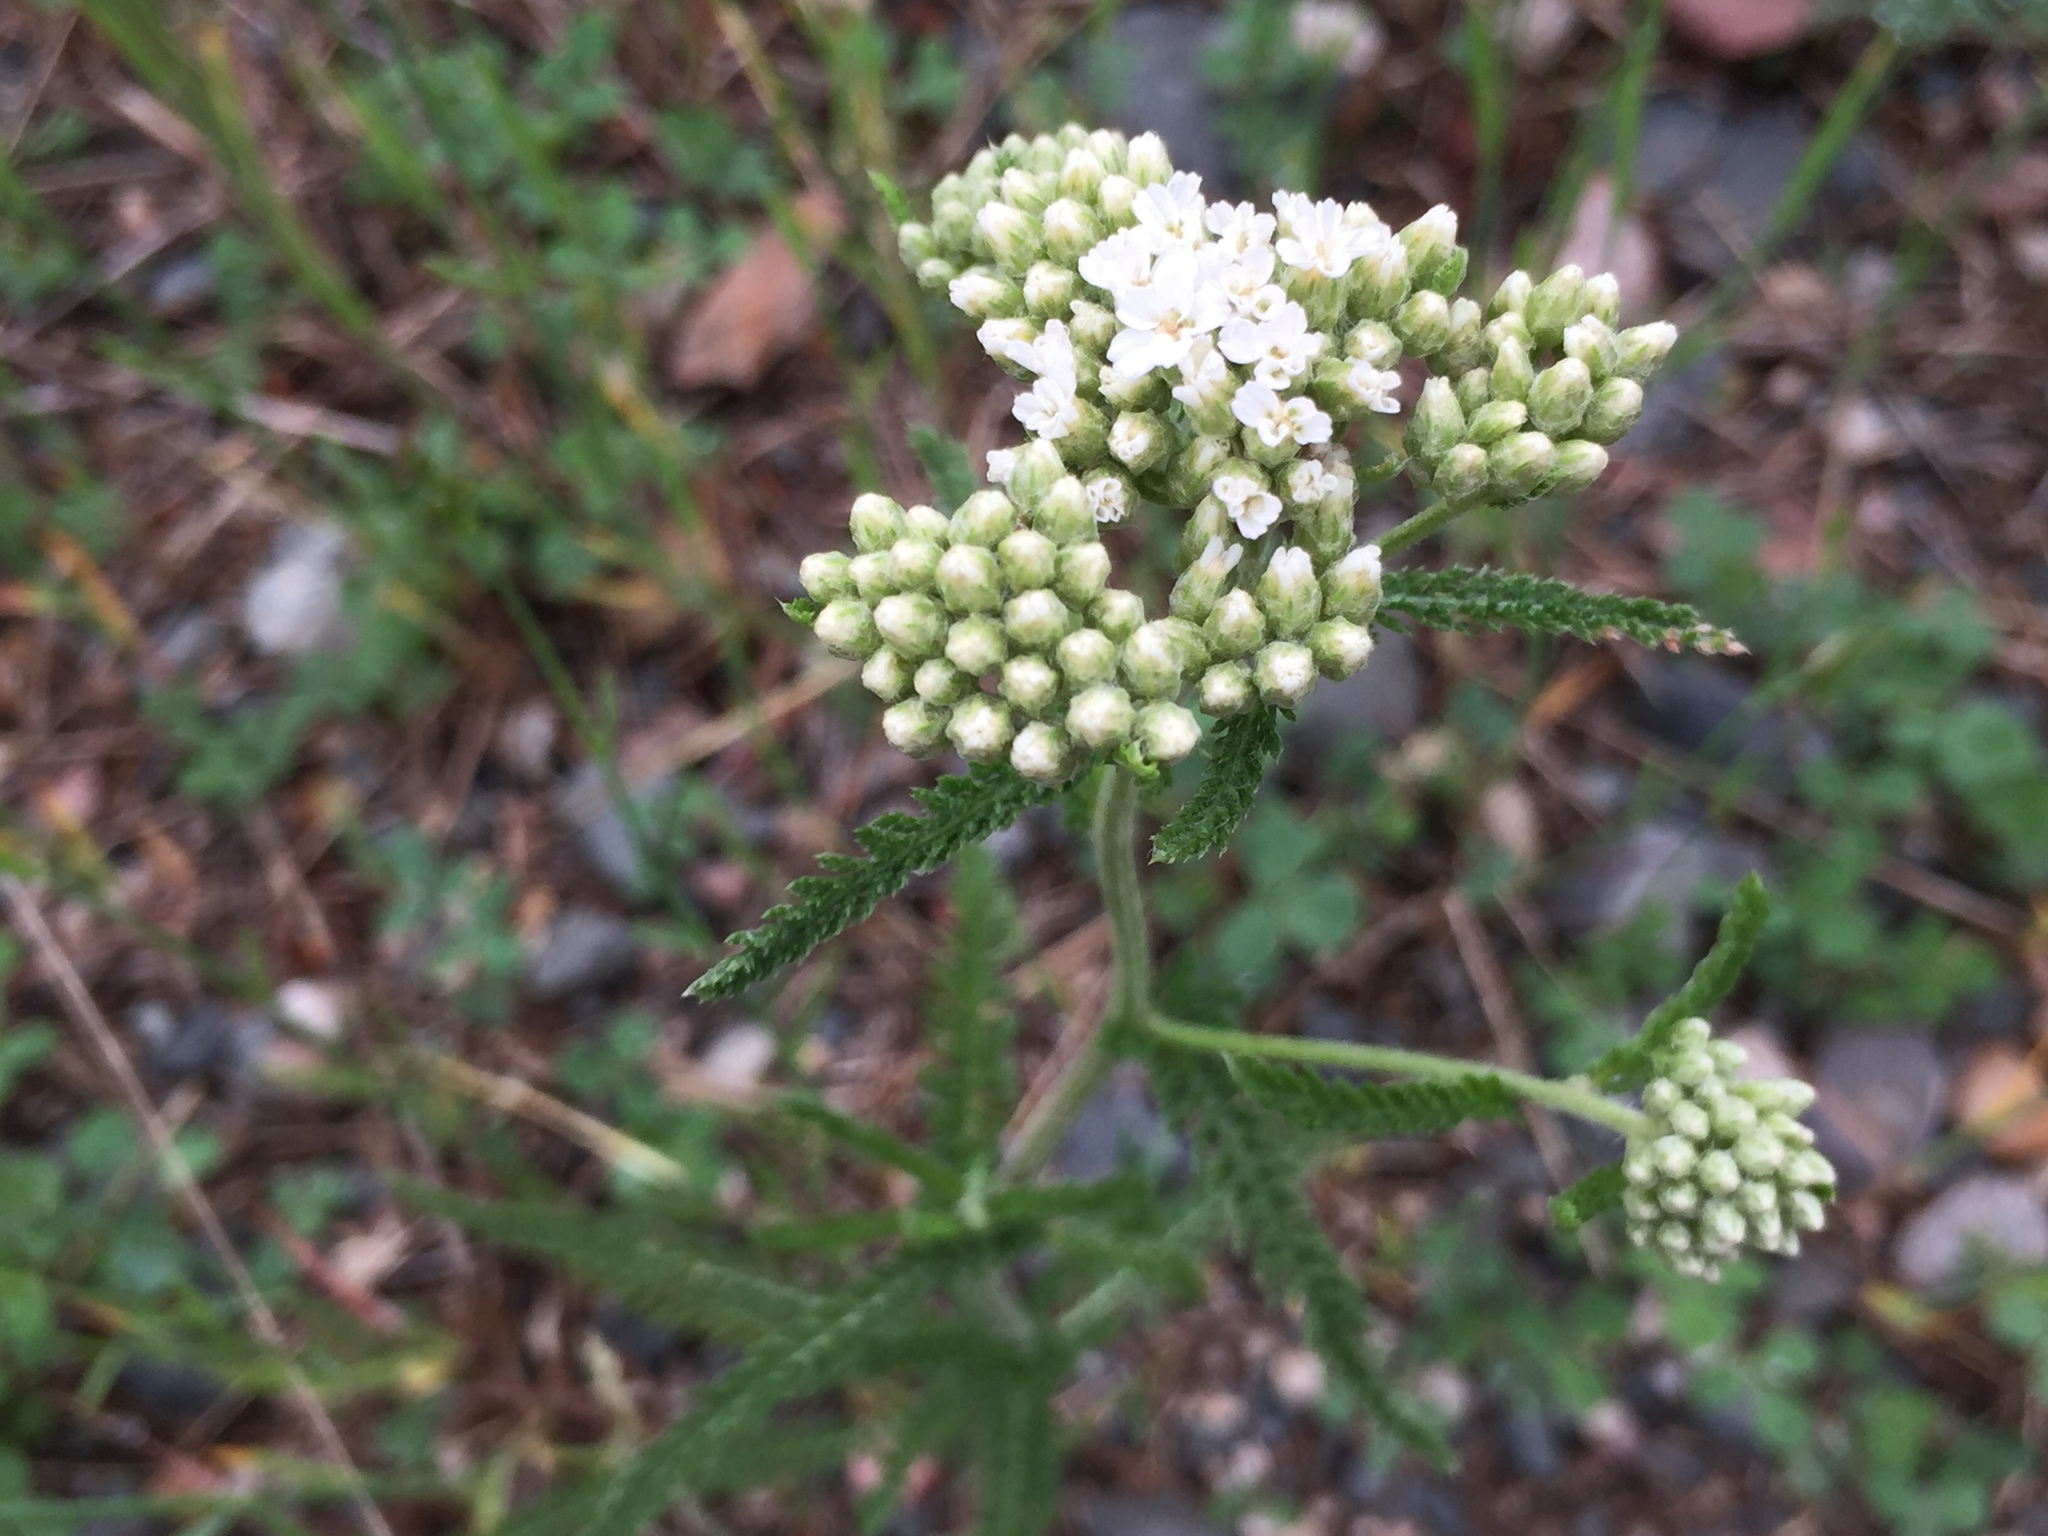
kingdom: Plantae
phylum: Tracheophyta
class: Magnoliopsida
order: Asterales
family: Asteraceae
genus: Achillea
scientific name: Achillea millefolium
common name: Yarrow
